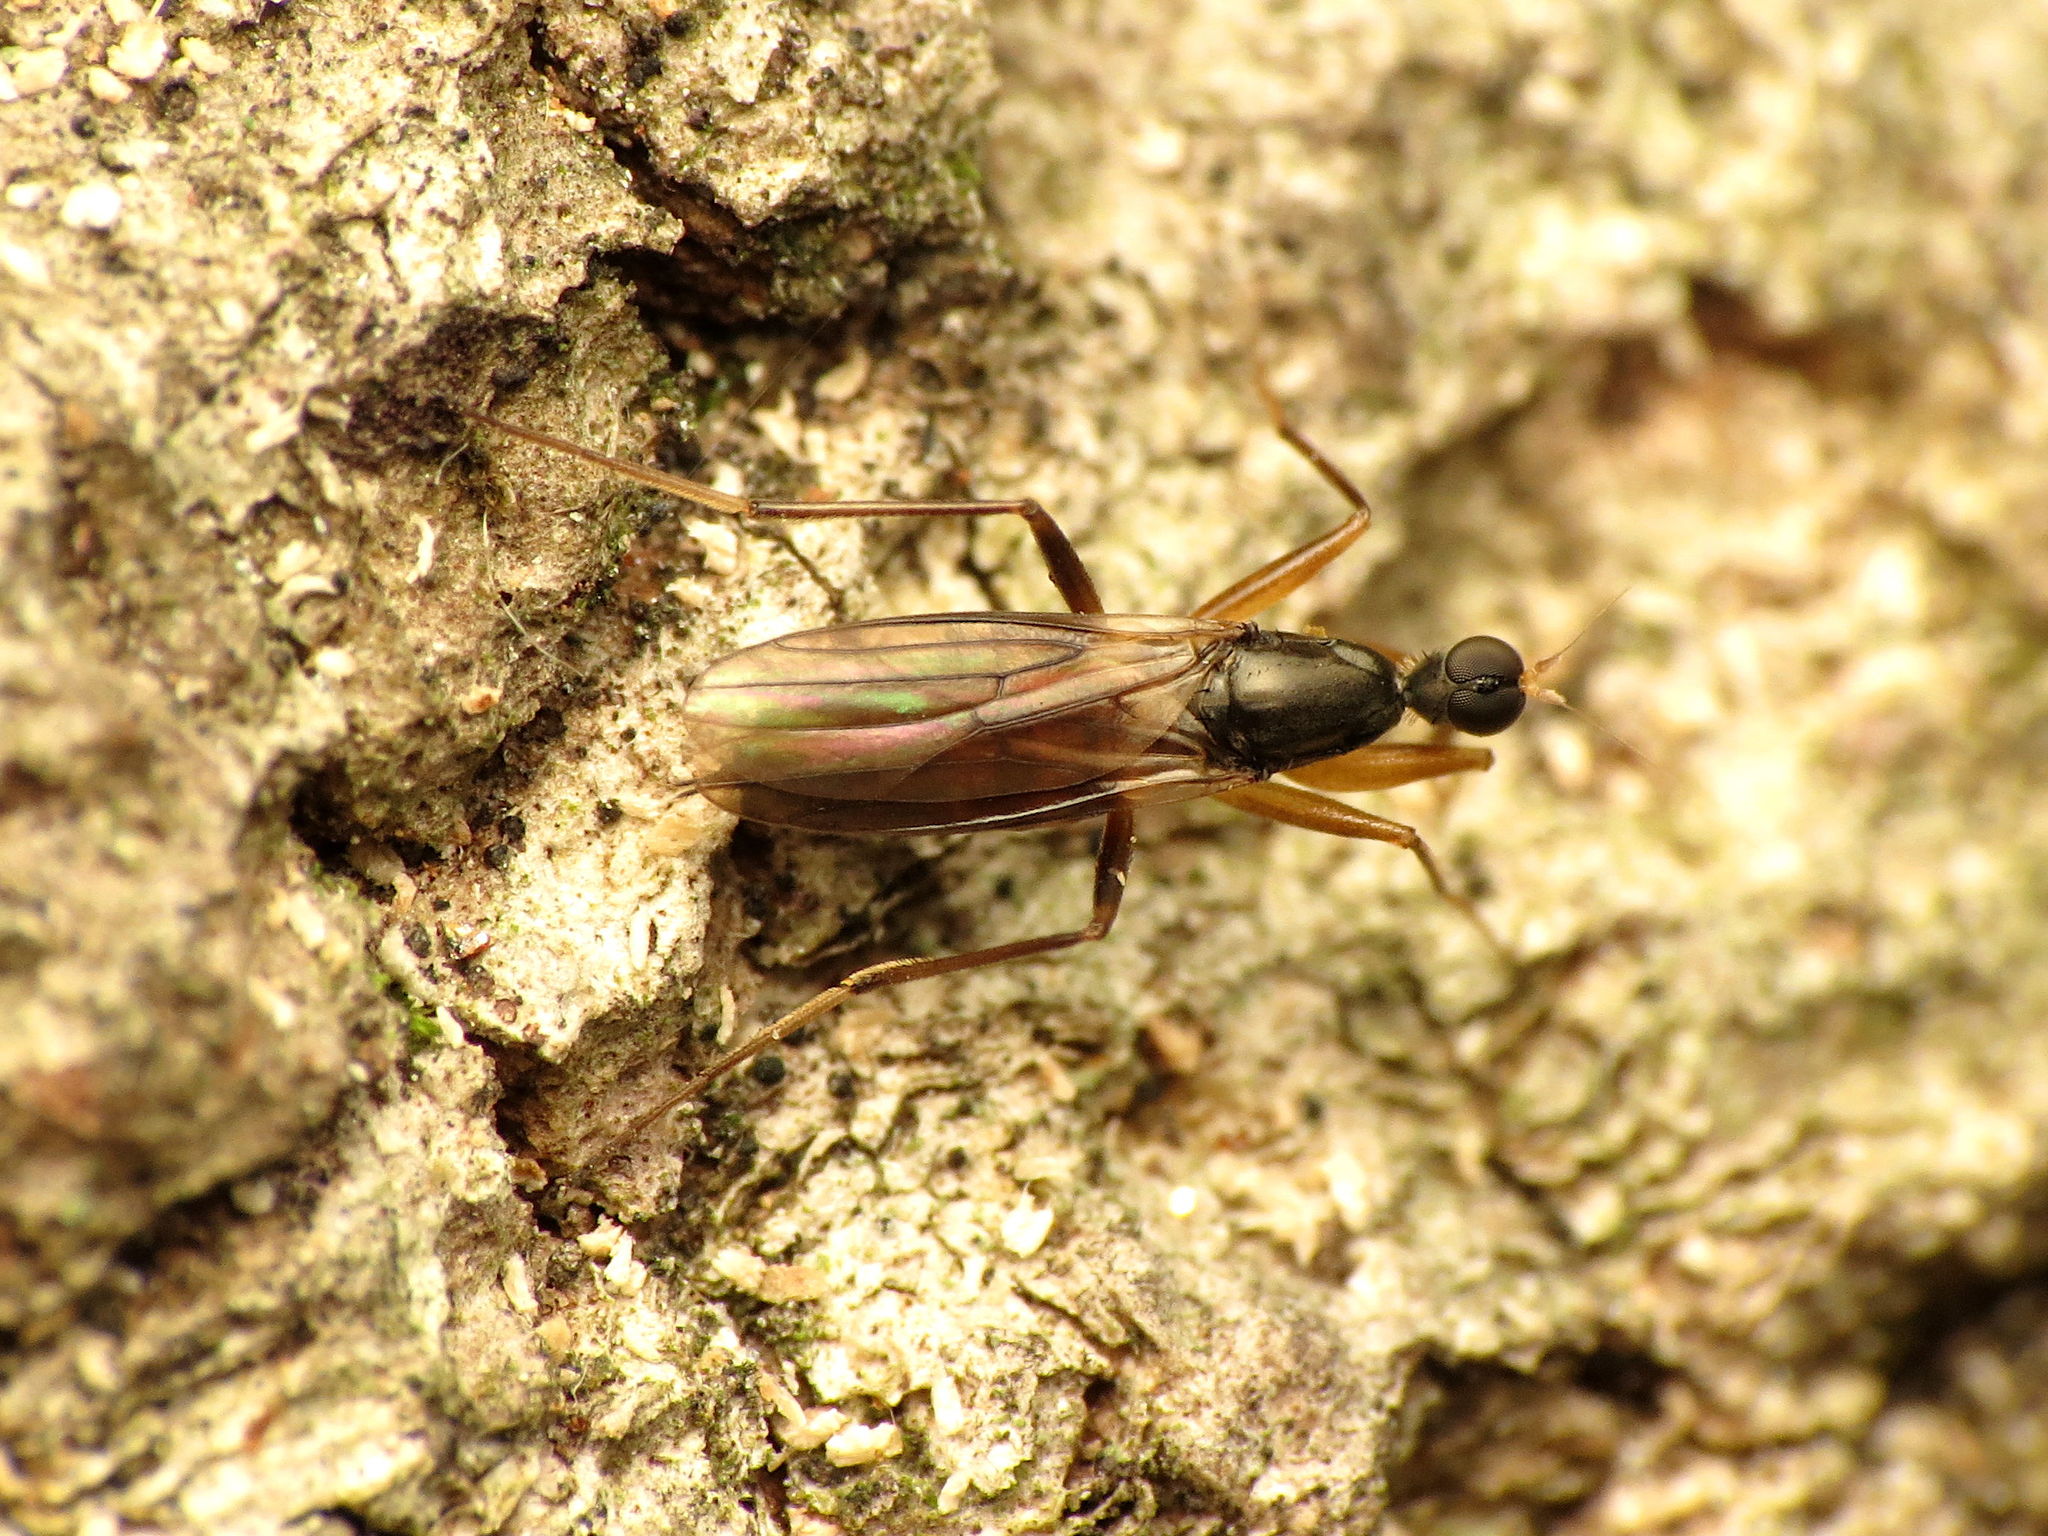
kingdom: Animalia
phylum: Arthropoda
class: Insecta
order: Diptera
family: Hybotidae
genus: Tachypeza
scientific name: Tachypeza pruinosa
